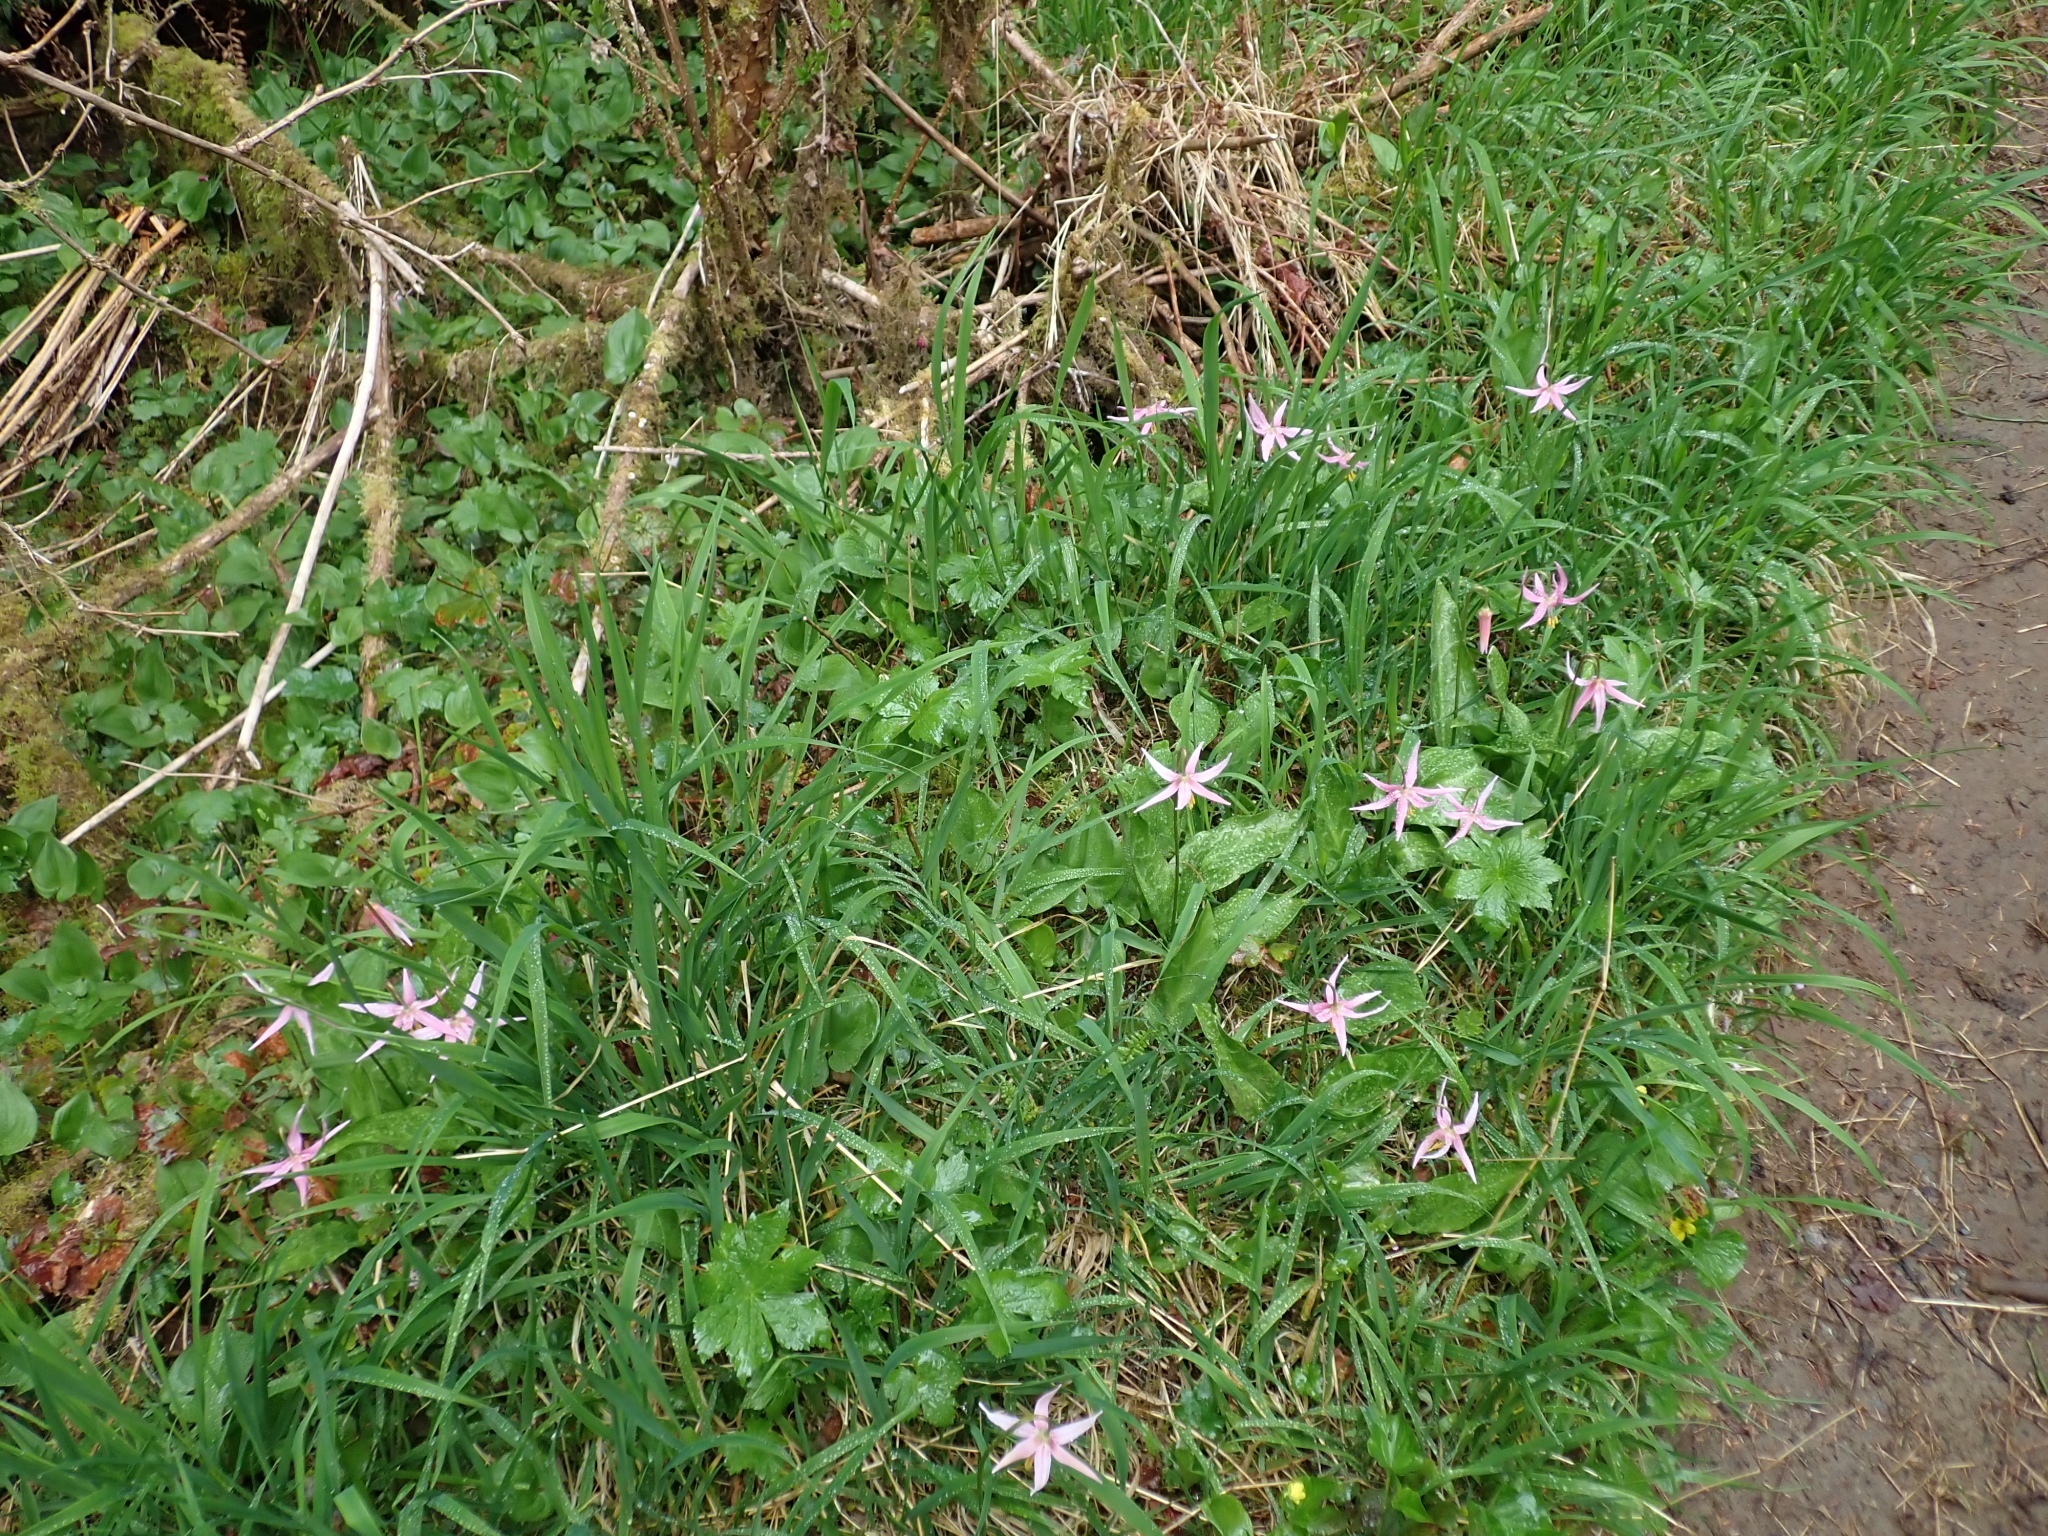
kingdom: Plantae
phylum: Tracheophyta
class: Liliopsida
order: Liliales
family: Liliaceae
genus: Erythronium
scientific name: Erythronium revolutum
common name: Pink fawn-lily
